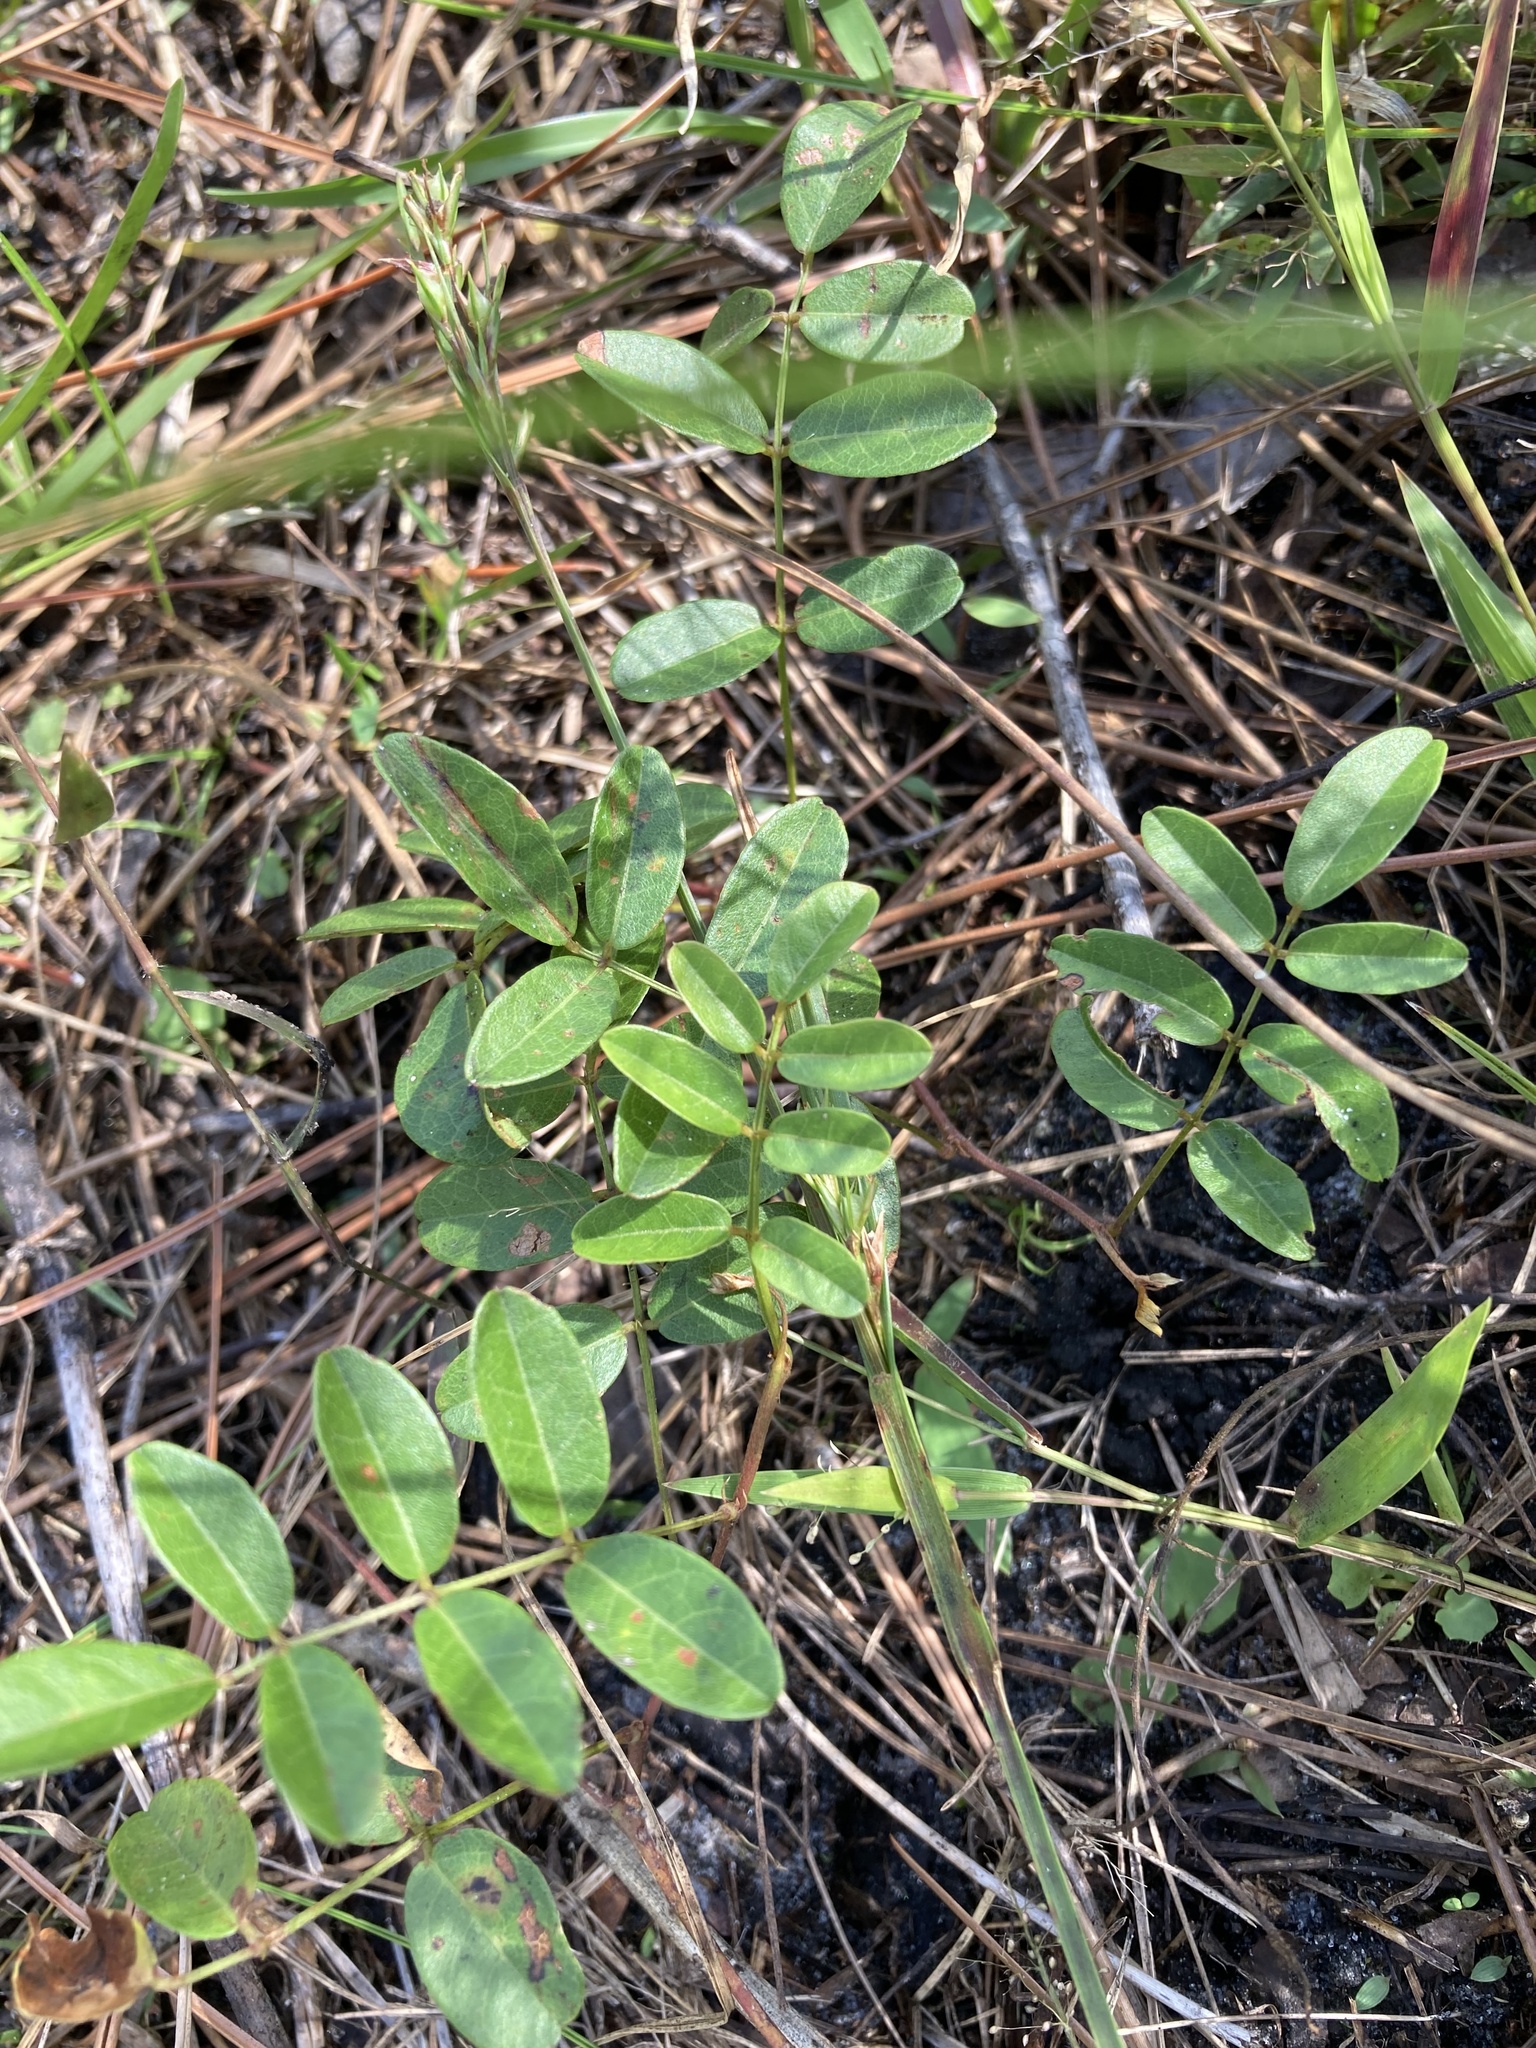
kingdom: Plantae
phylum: Tracheophyta
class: Magnoliopsida
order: Fabales
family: Fabaceae
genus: Galactia
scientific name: Galactia elliottii
